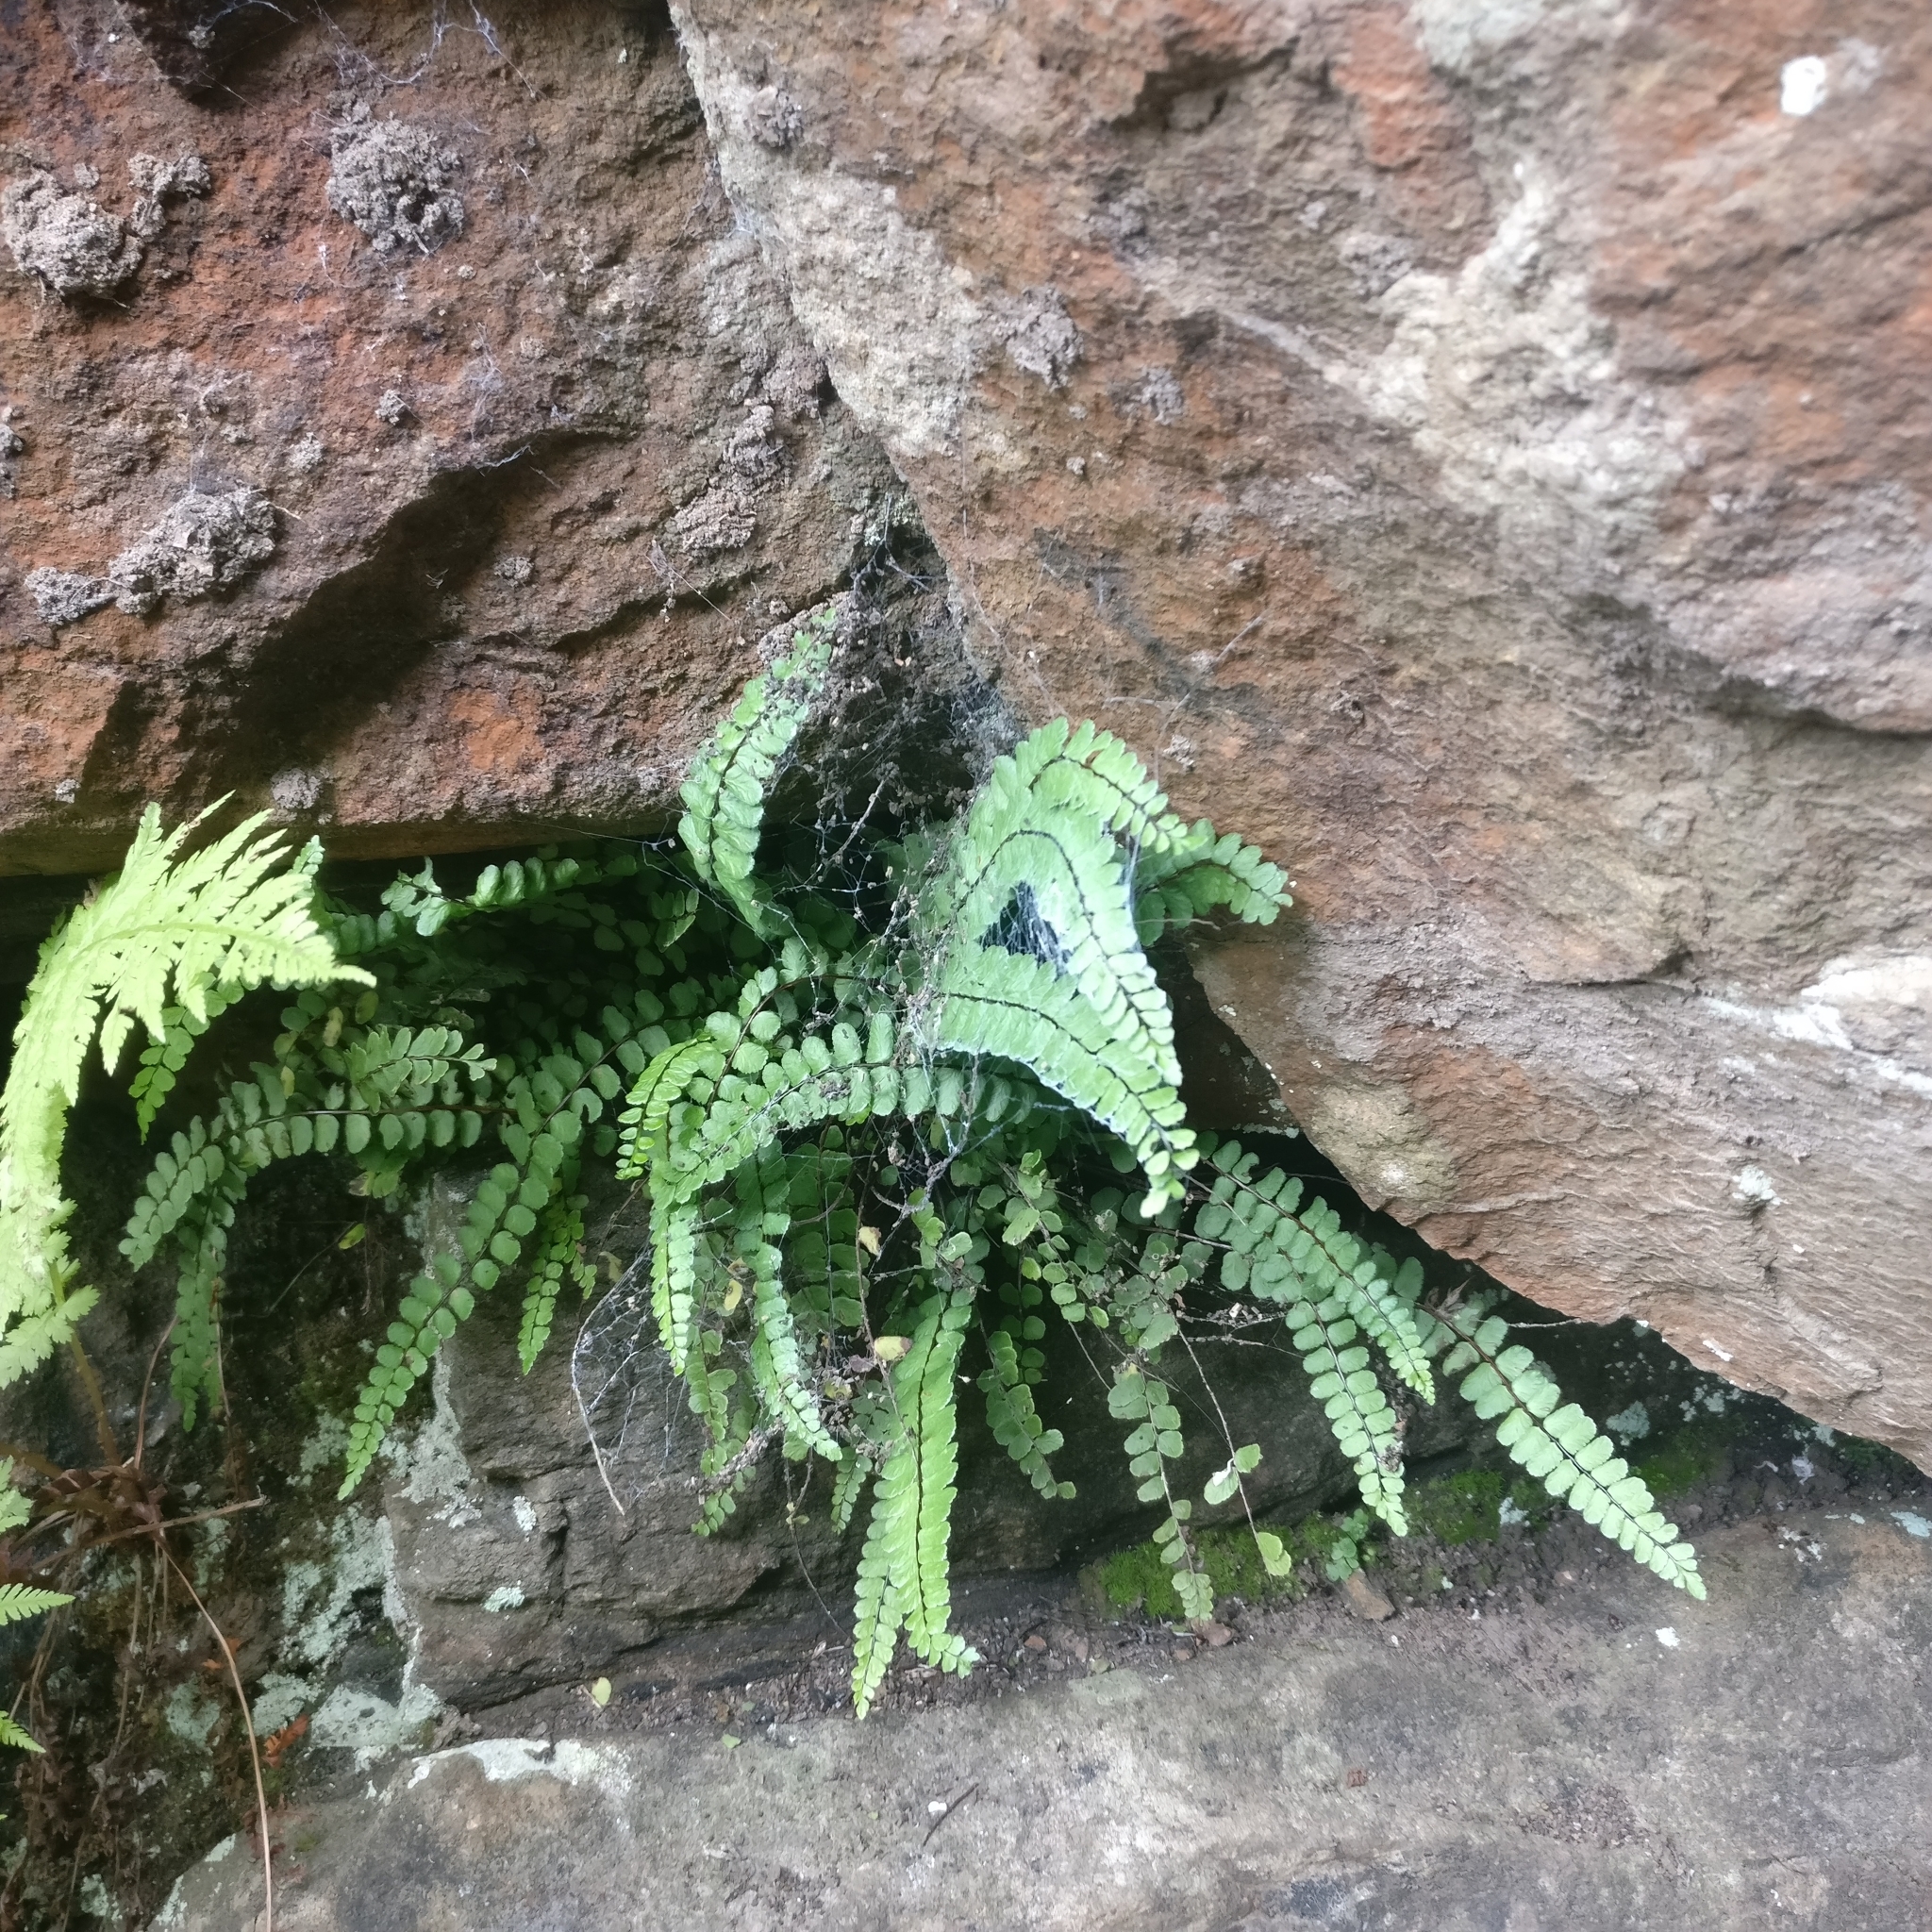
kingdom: Plantae
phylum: Tracheophyta
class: Polypodiopsida
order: Polypodiales
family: Aspleniaceae
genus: Asplenium
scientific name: Asplenium trichomanes
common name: Maidenhair spleenwort
